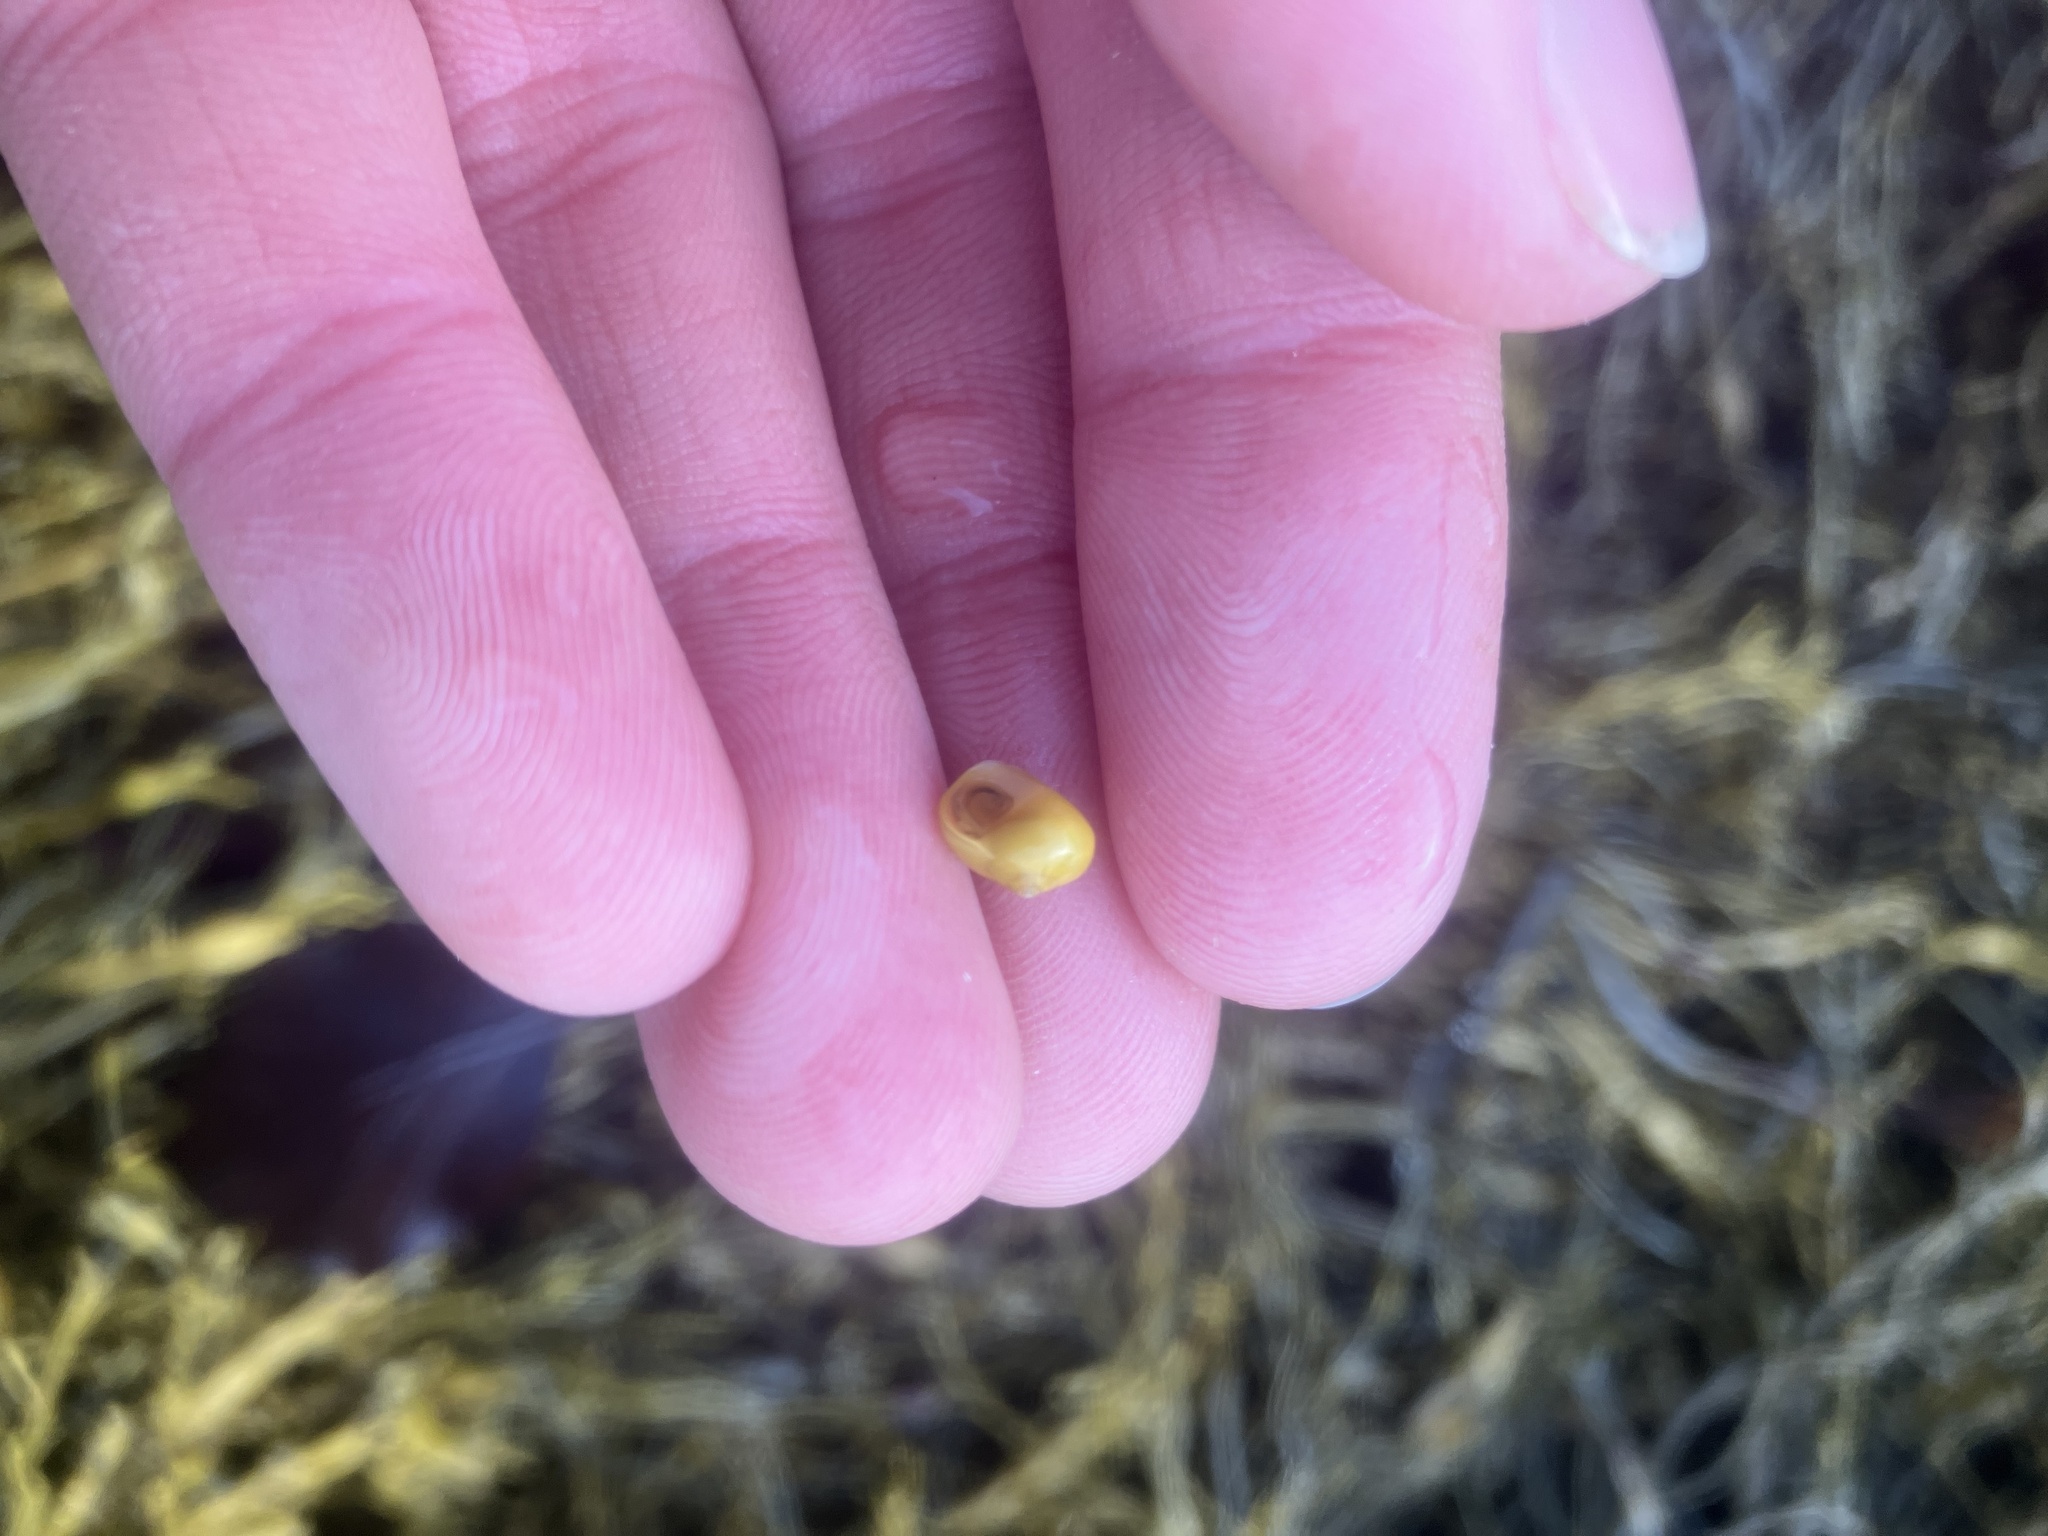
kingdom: Animalia
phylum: Mollusca
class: Gastropoda
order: Littorinimorpha
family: Littorinidae
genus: Littorina
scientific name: Littorina obtusata
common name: Flat periwinkle
